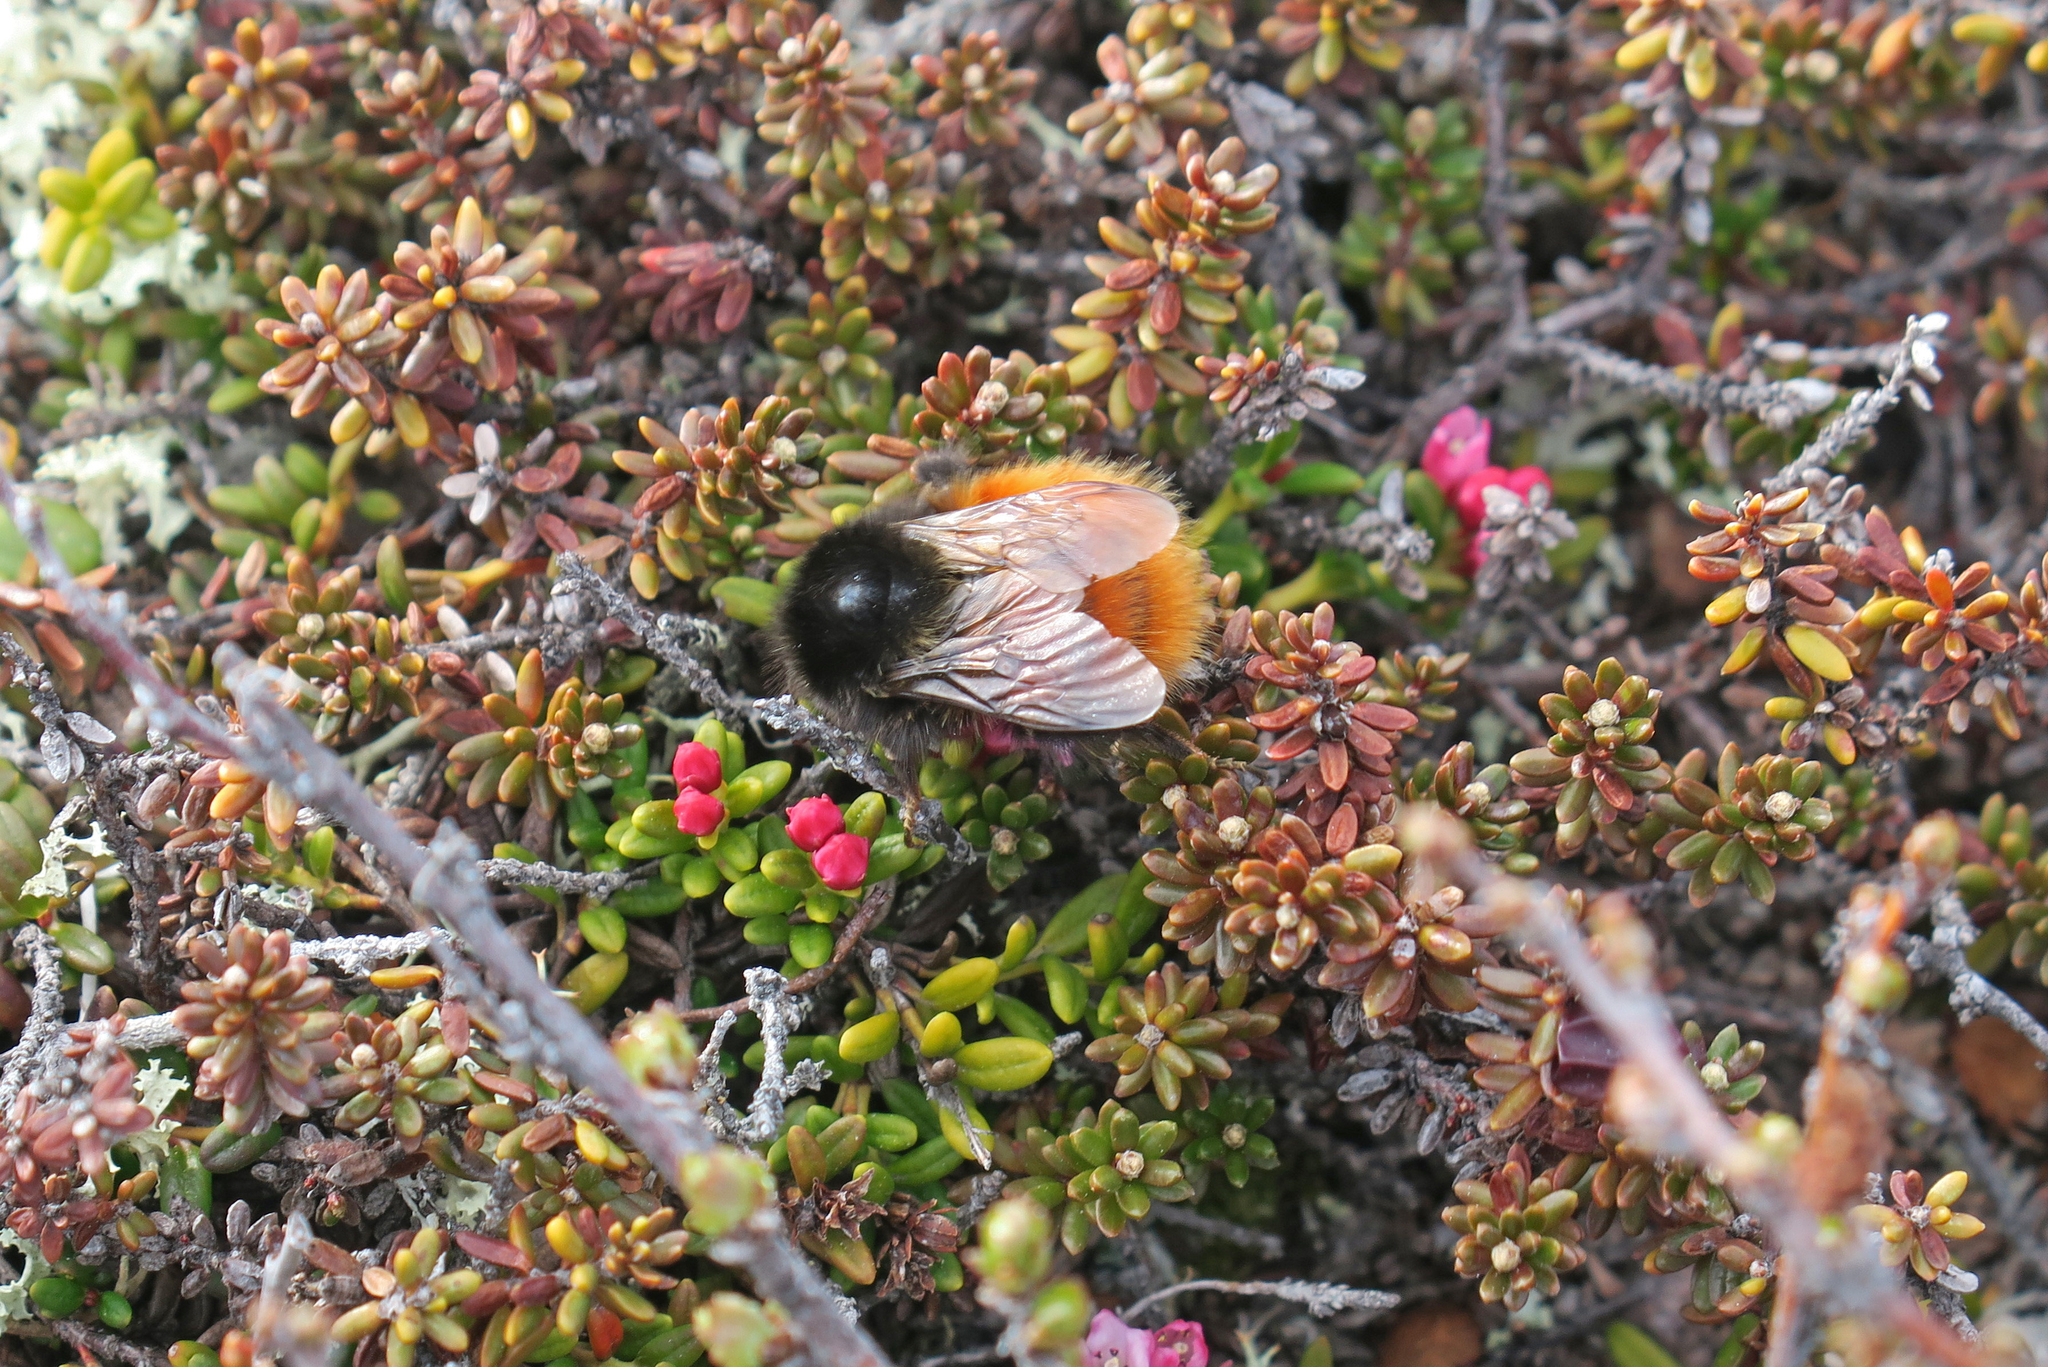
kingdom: Animalia
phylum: Arthropoda
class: Insecta
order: Hymenoptera
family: Apidae
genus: Bombus
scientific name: Bombus alpinus
